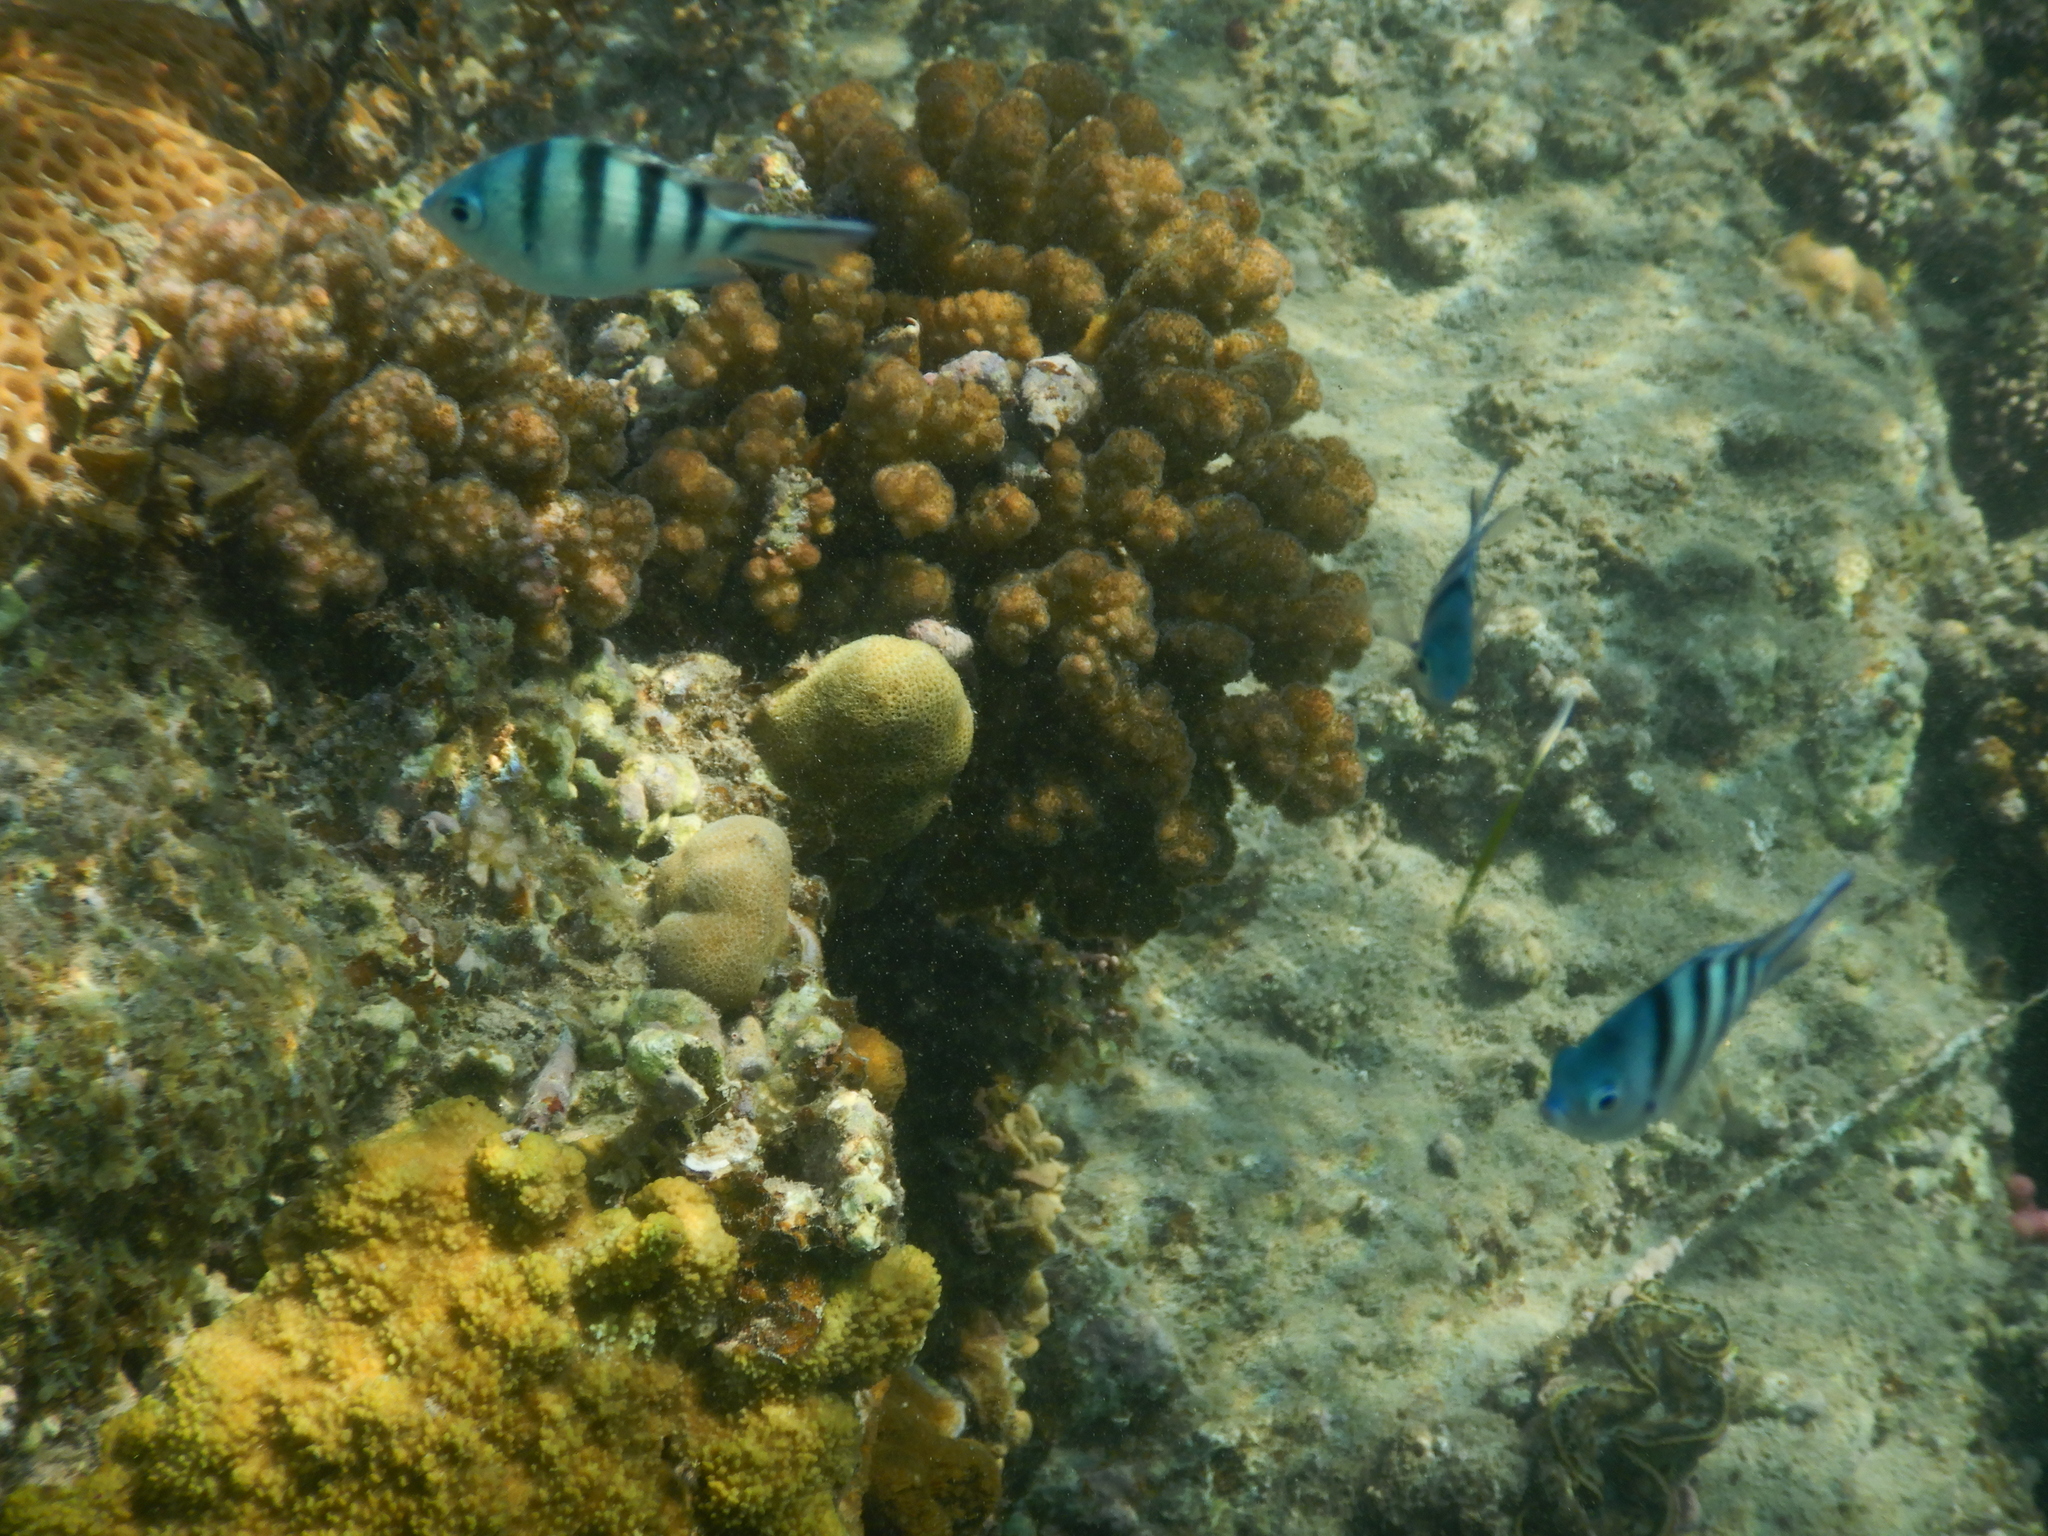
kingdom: Animalia
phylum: Chordata
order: Perciformes
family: Pomacentridae
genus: Abudefduf
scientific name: Abudefduf sexfasciatus
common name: Scissortail sergeant
